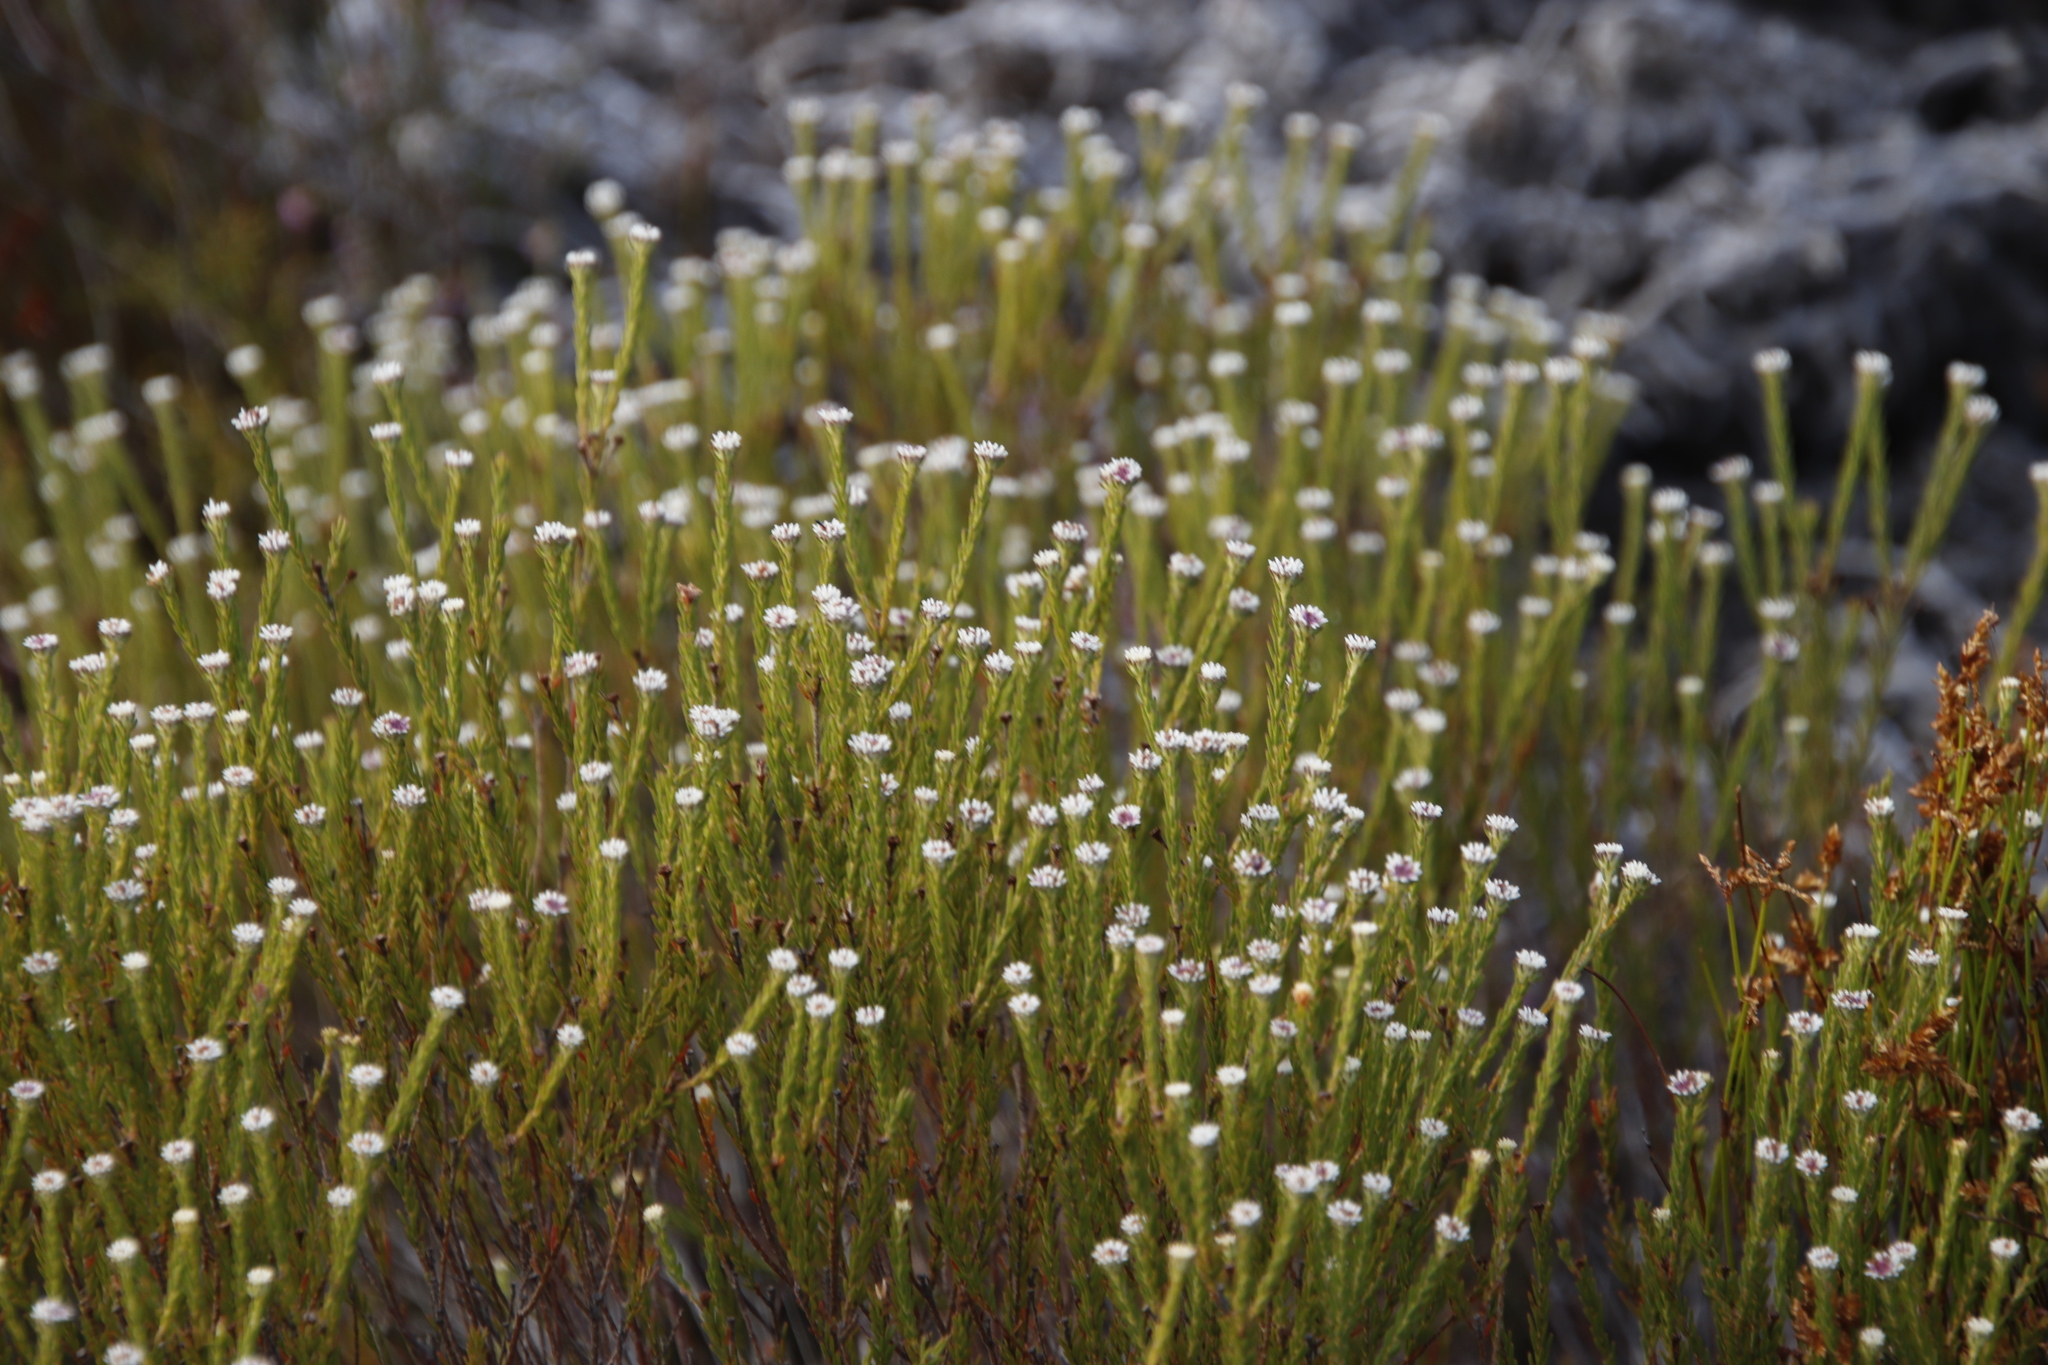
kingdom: Plantae
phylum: Tracheophyta
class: Magnoliopsida
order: Bruniales
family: Bruniaceae
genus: Staavia
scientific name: Staavia radiata
